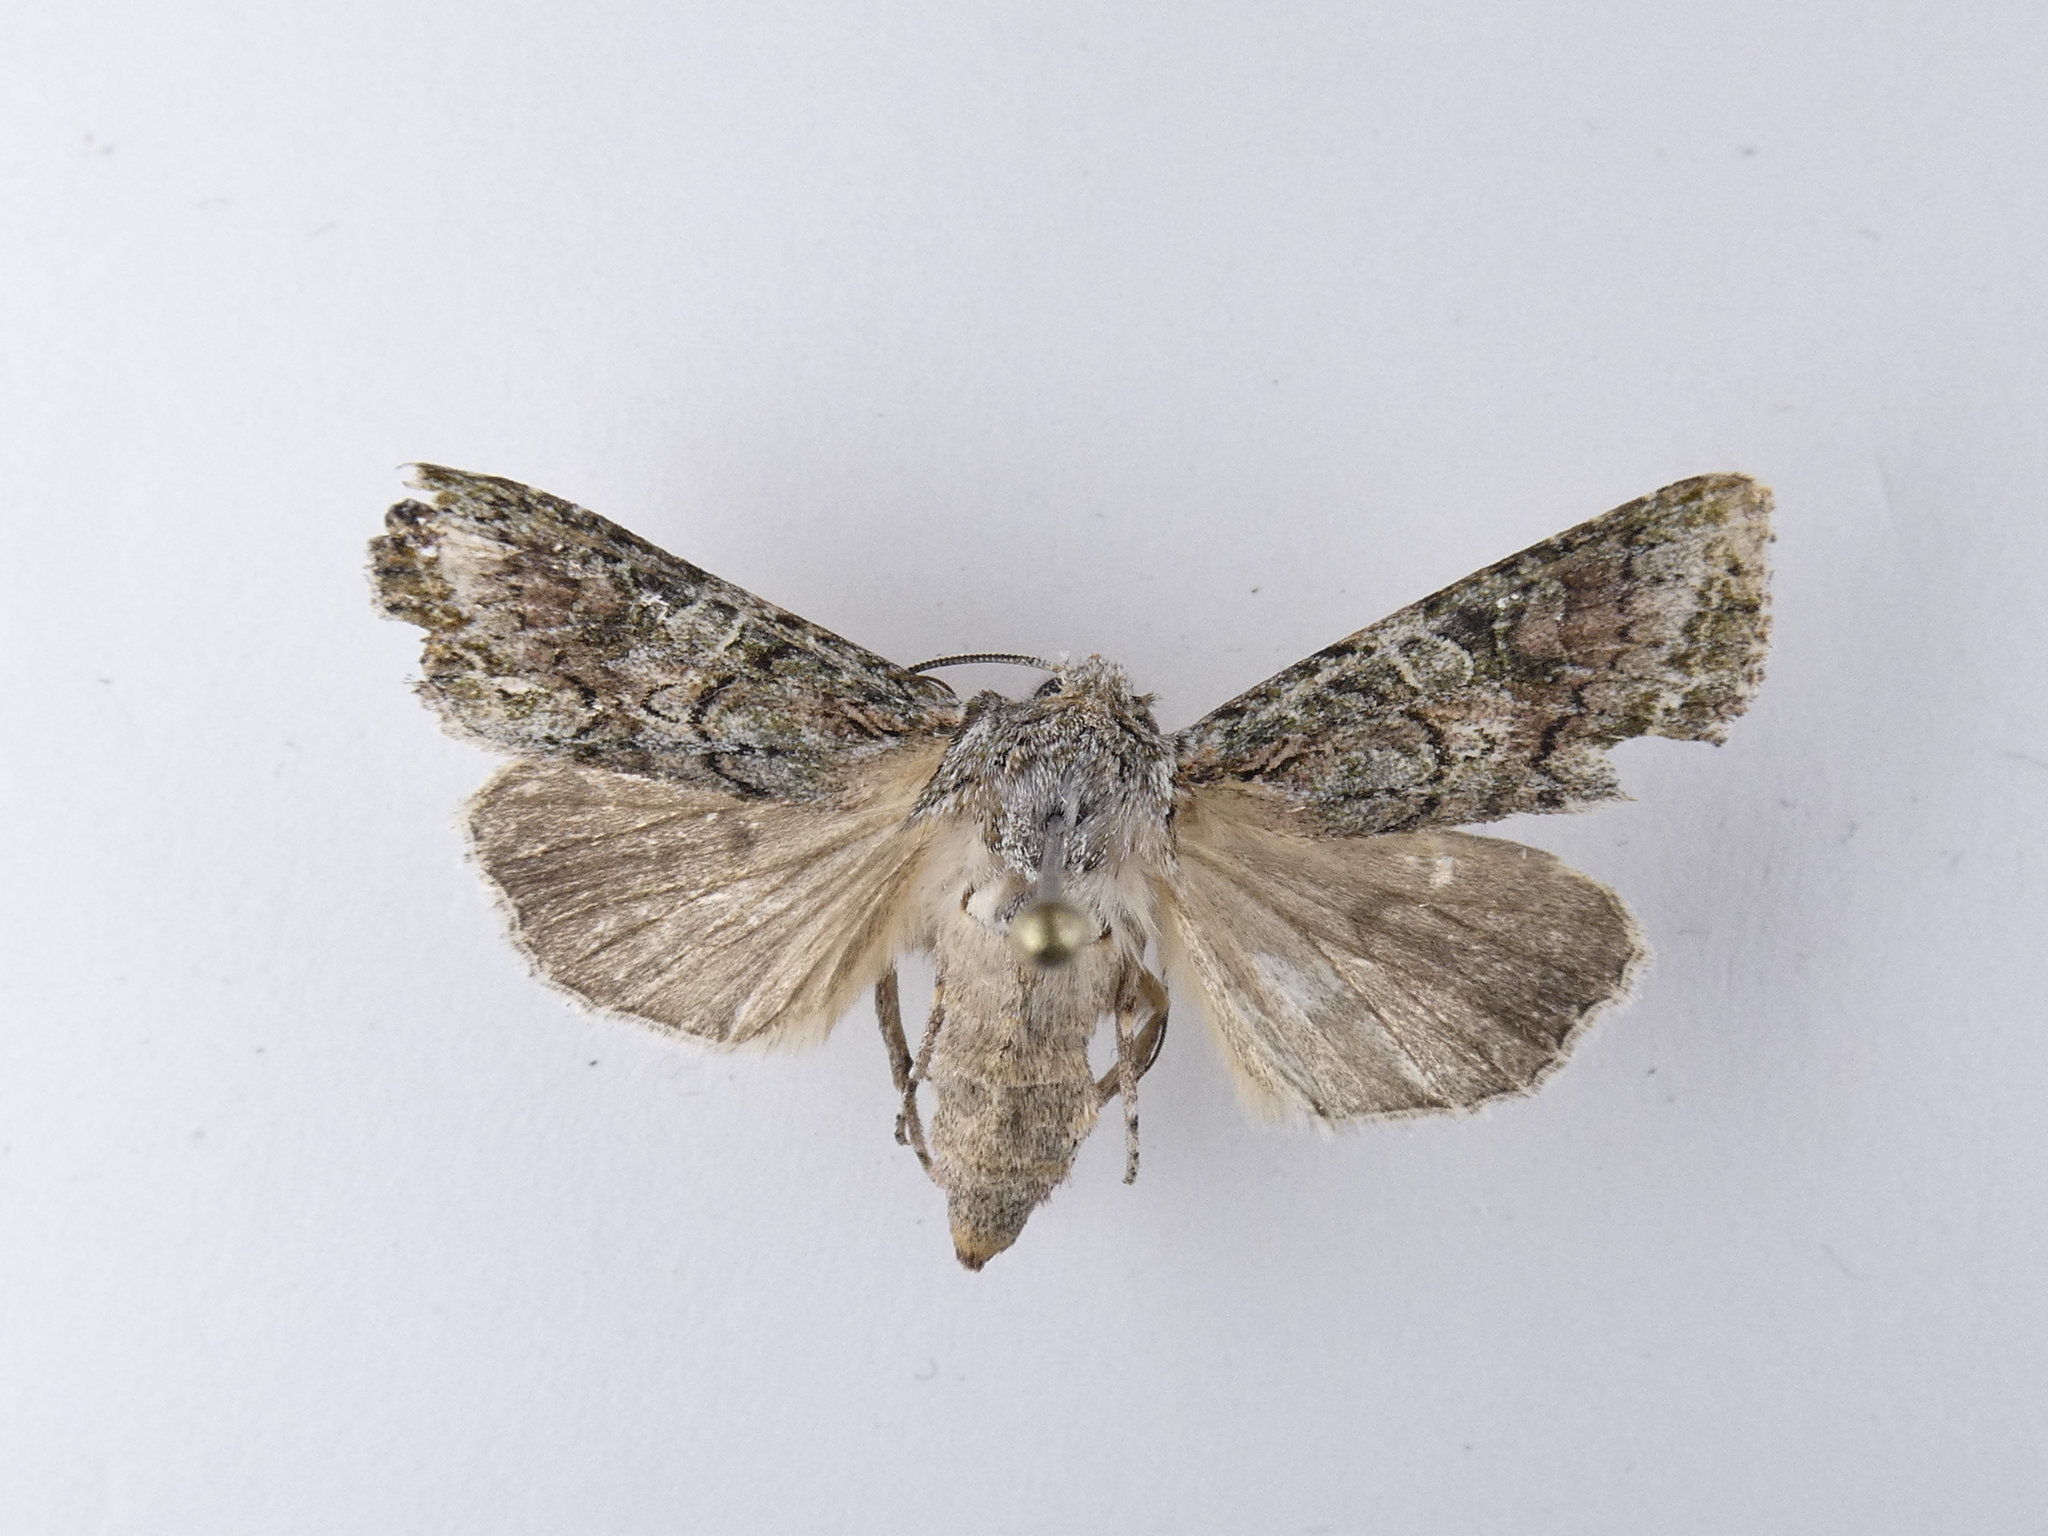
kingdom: Animalia
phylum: Arthropoda
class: Insecta
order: Lepidoptera
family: Noctuidae
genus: Ichneutica
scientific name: Ichneutica mutans
